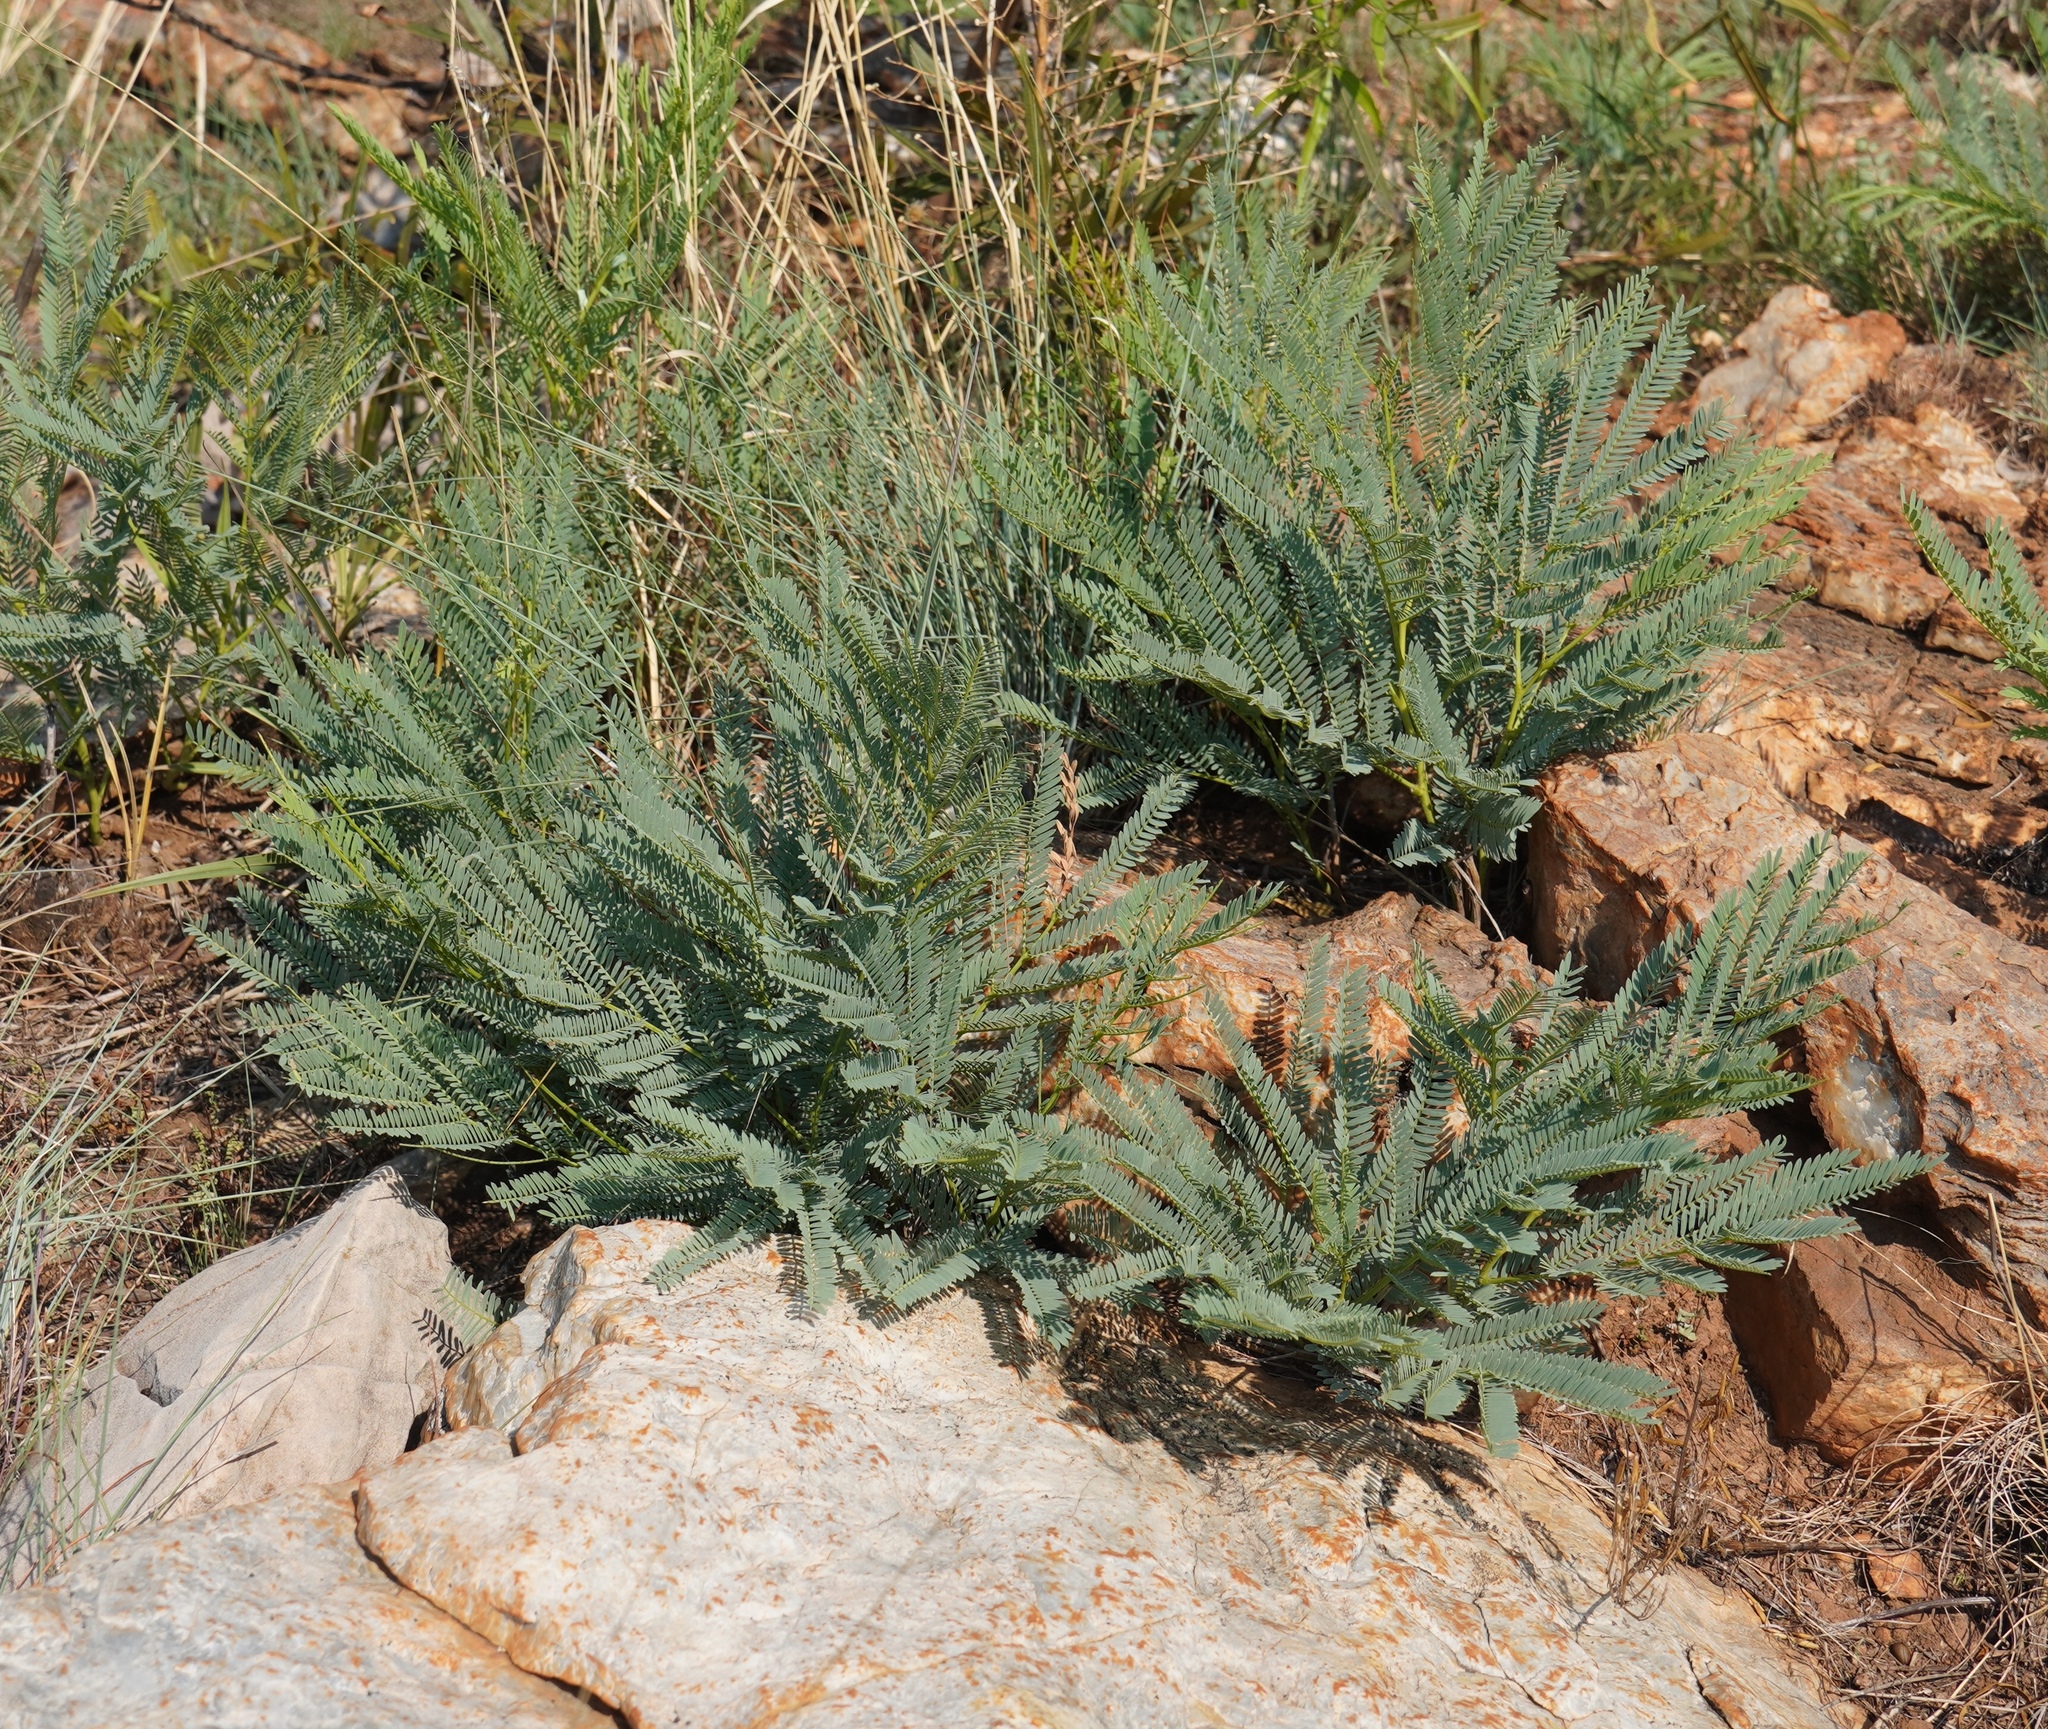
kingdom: Plantae
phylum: Tracheophyta
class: Magnoliopsida
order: Fabales
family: Fabaceae
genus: Elephantorrhiza
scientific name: Elephantorrhiza elephantina
